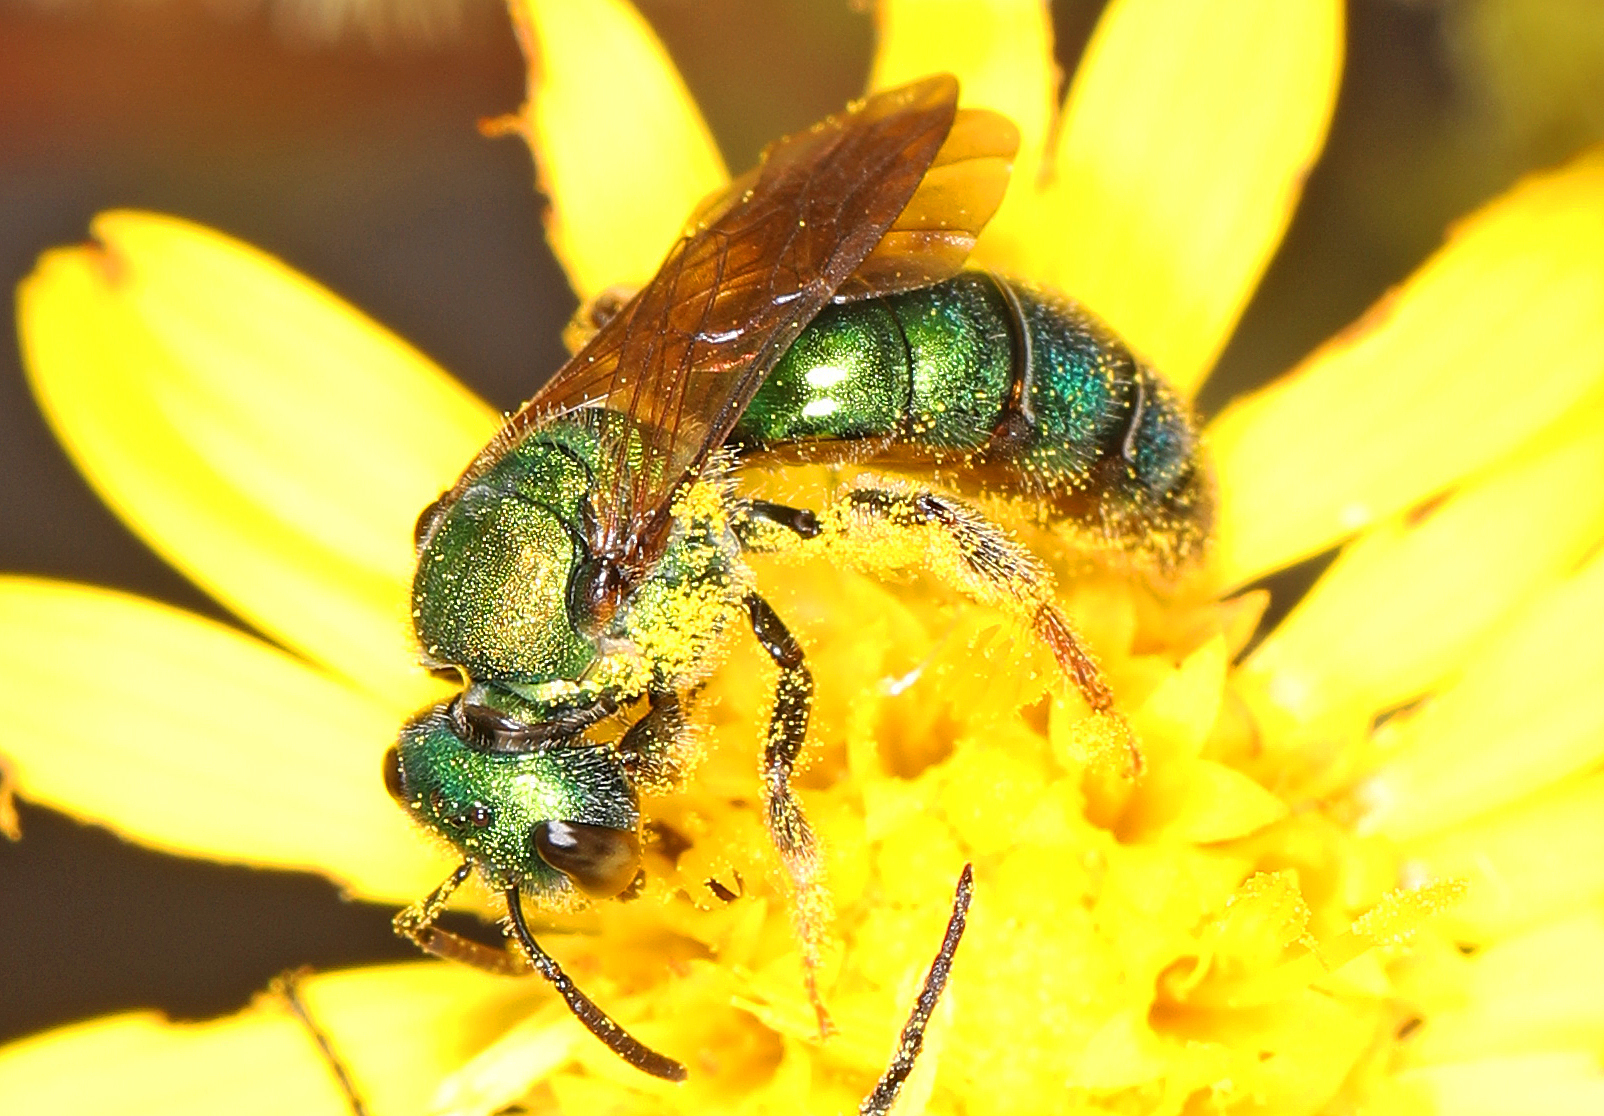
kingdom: Animalia
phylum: Arthropoda
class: Insecta
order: Hymenoptera
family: Halictidae
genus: Augochlora
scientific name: Augochlora pura
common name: Pure green sweat bee
